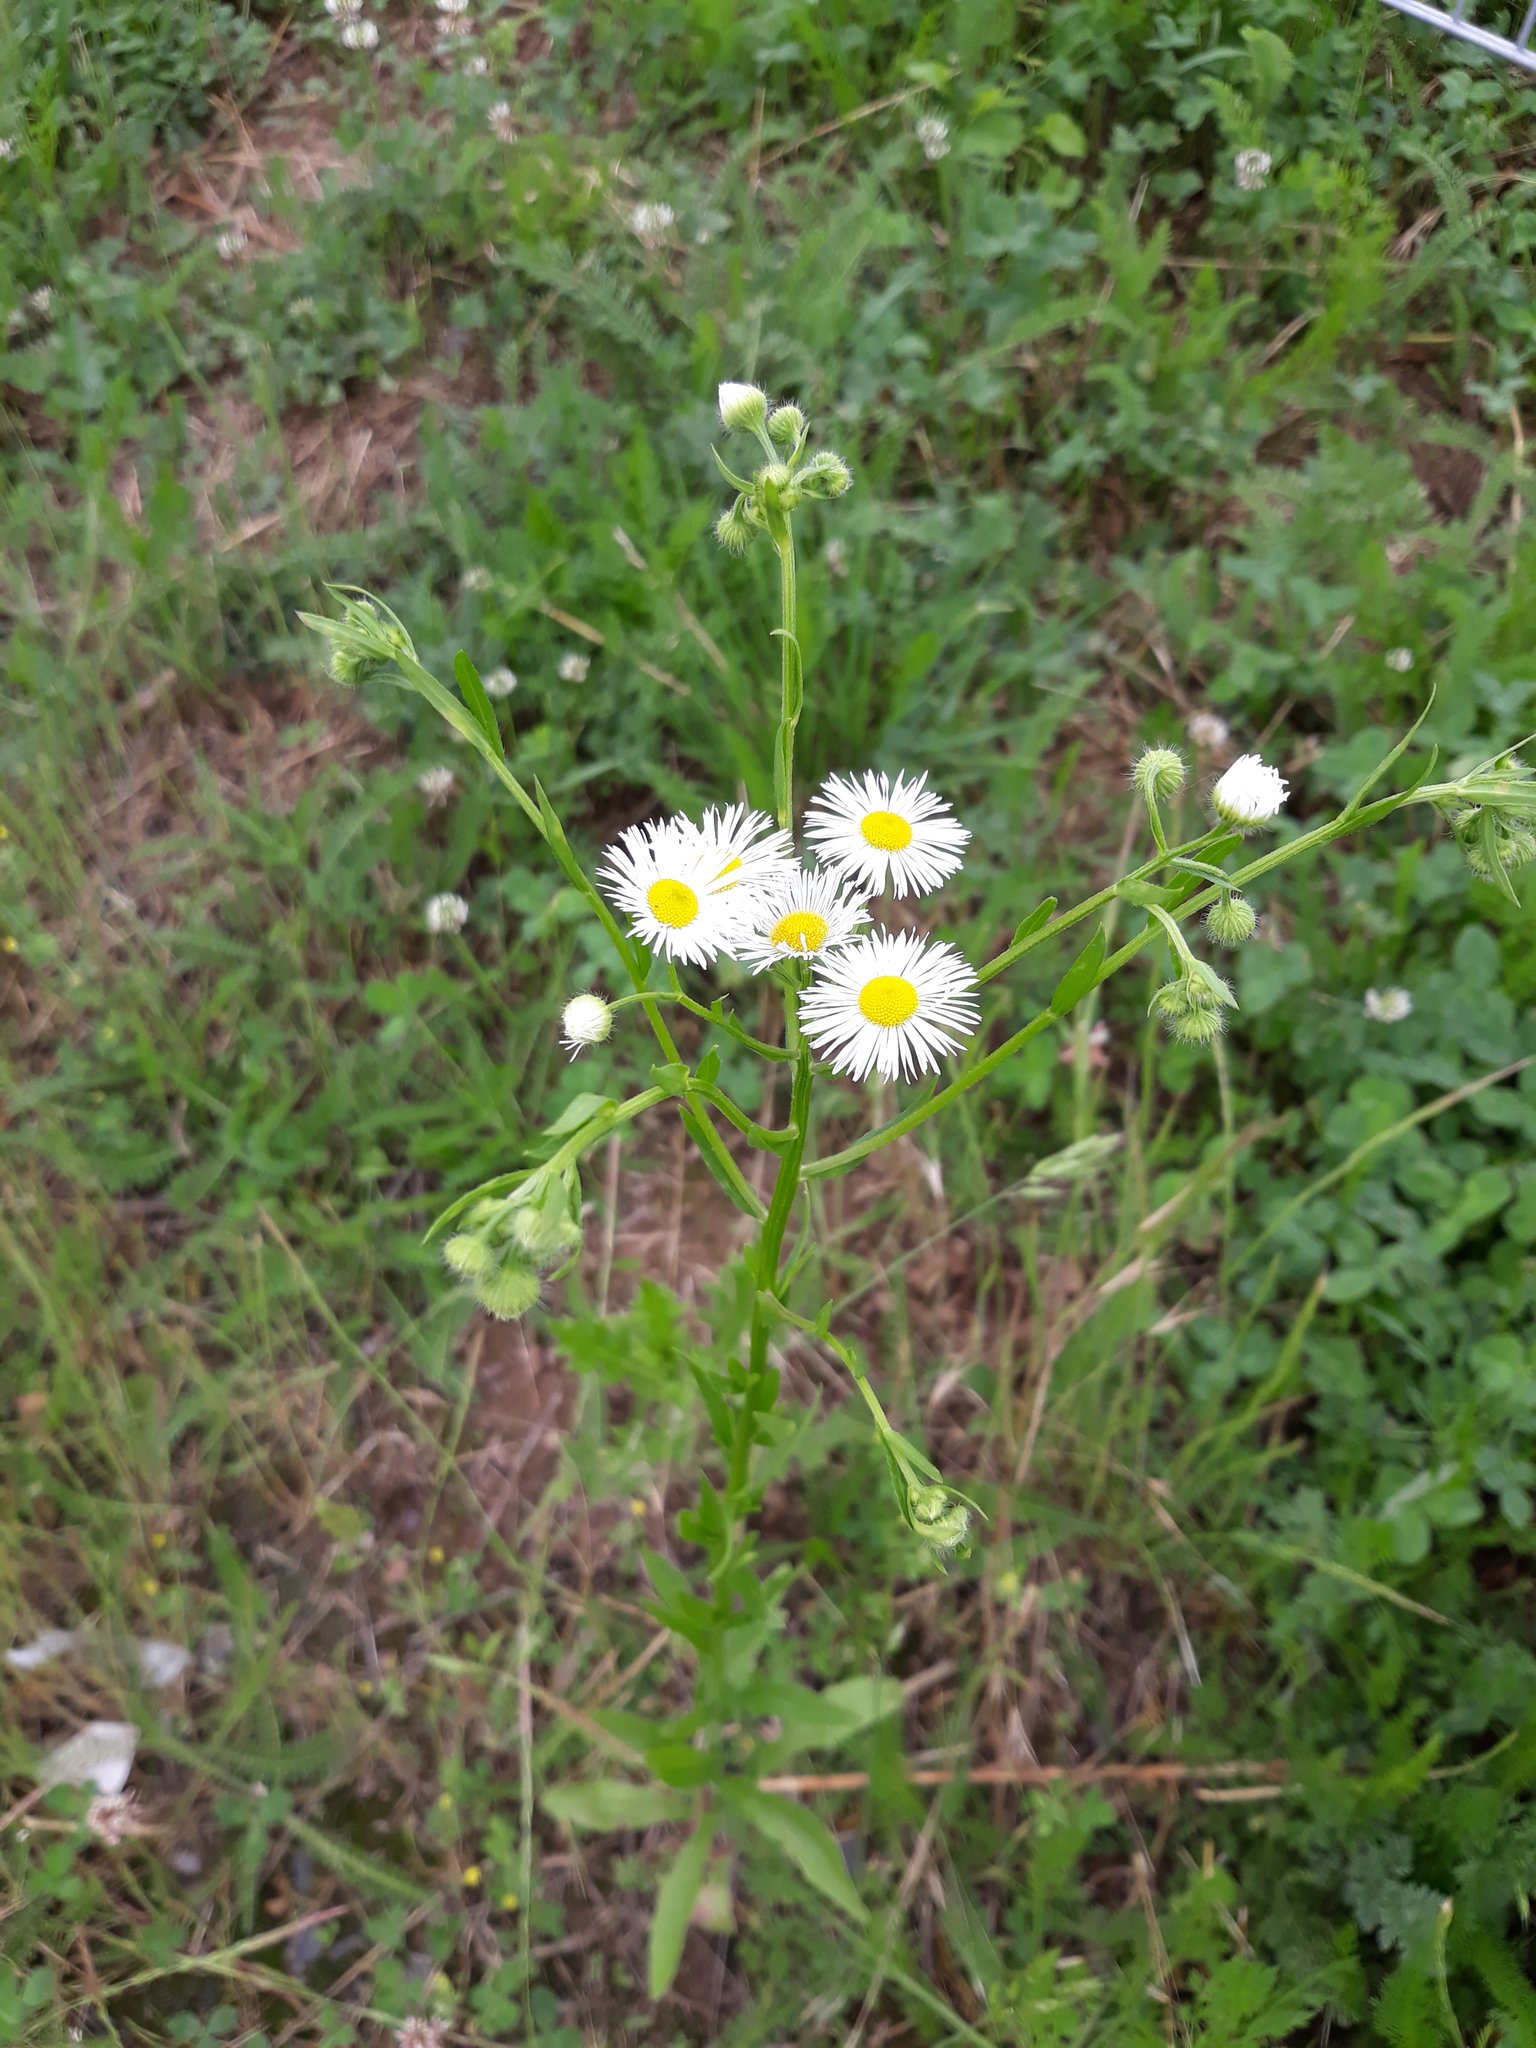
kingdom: Plantae
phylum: Tracheophyta
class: Magnoliopsida
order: Asterales
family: Asteraceae
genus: Erigeron
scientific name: Erigeron annuus
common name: Tall fleabane
